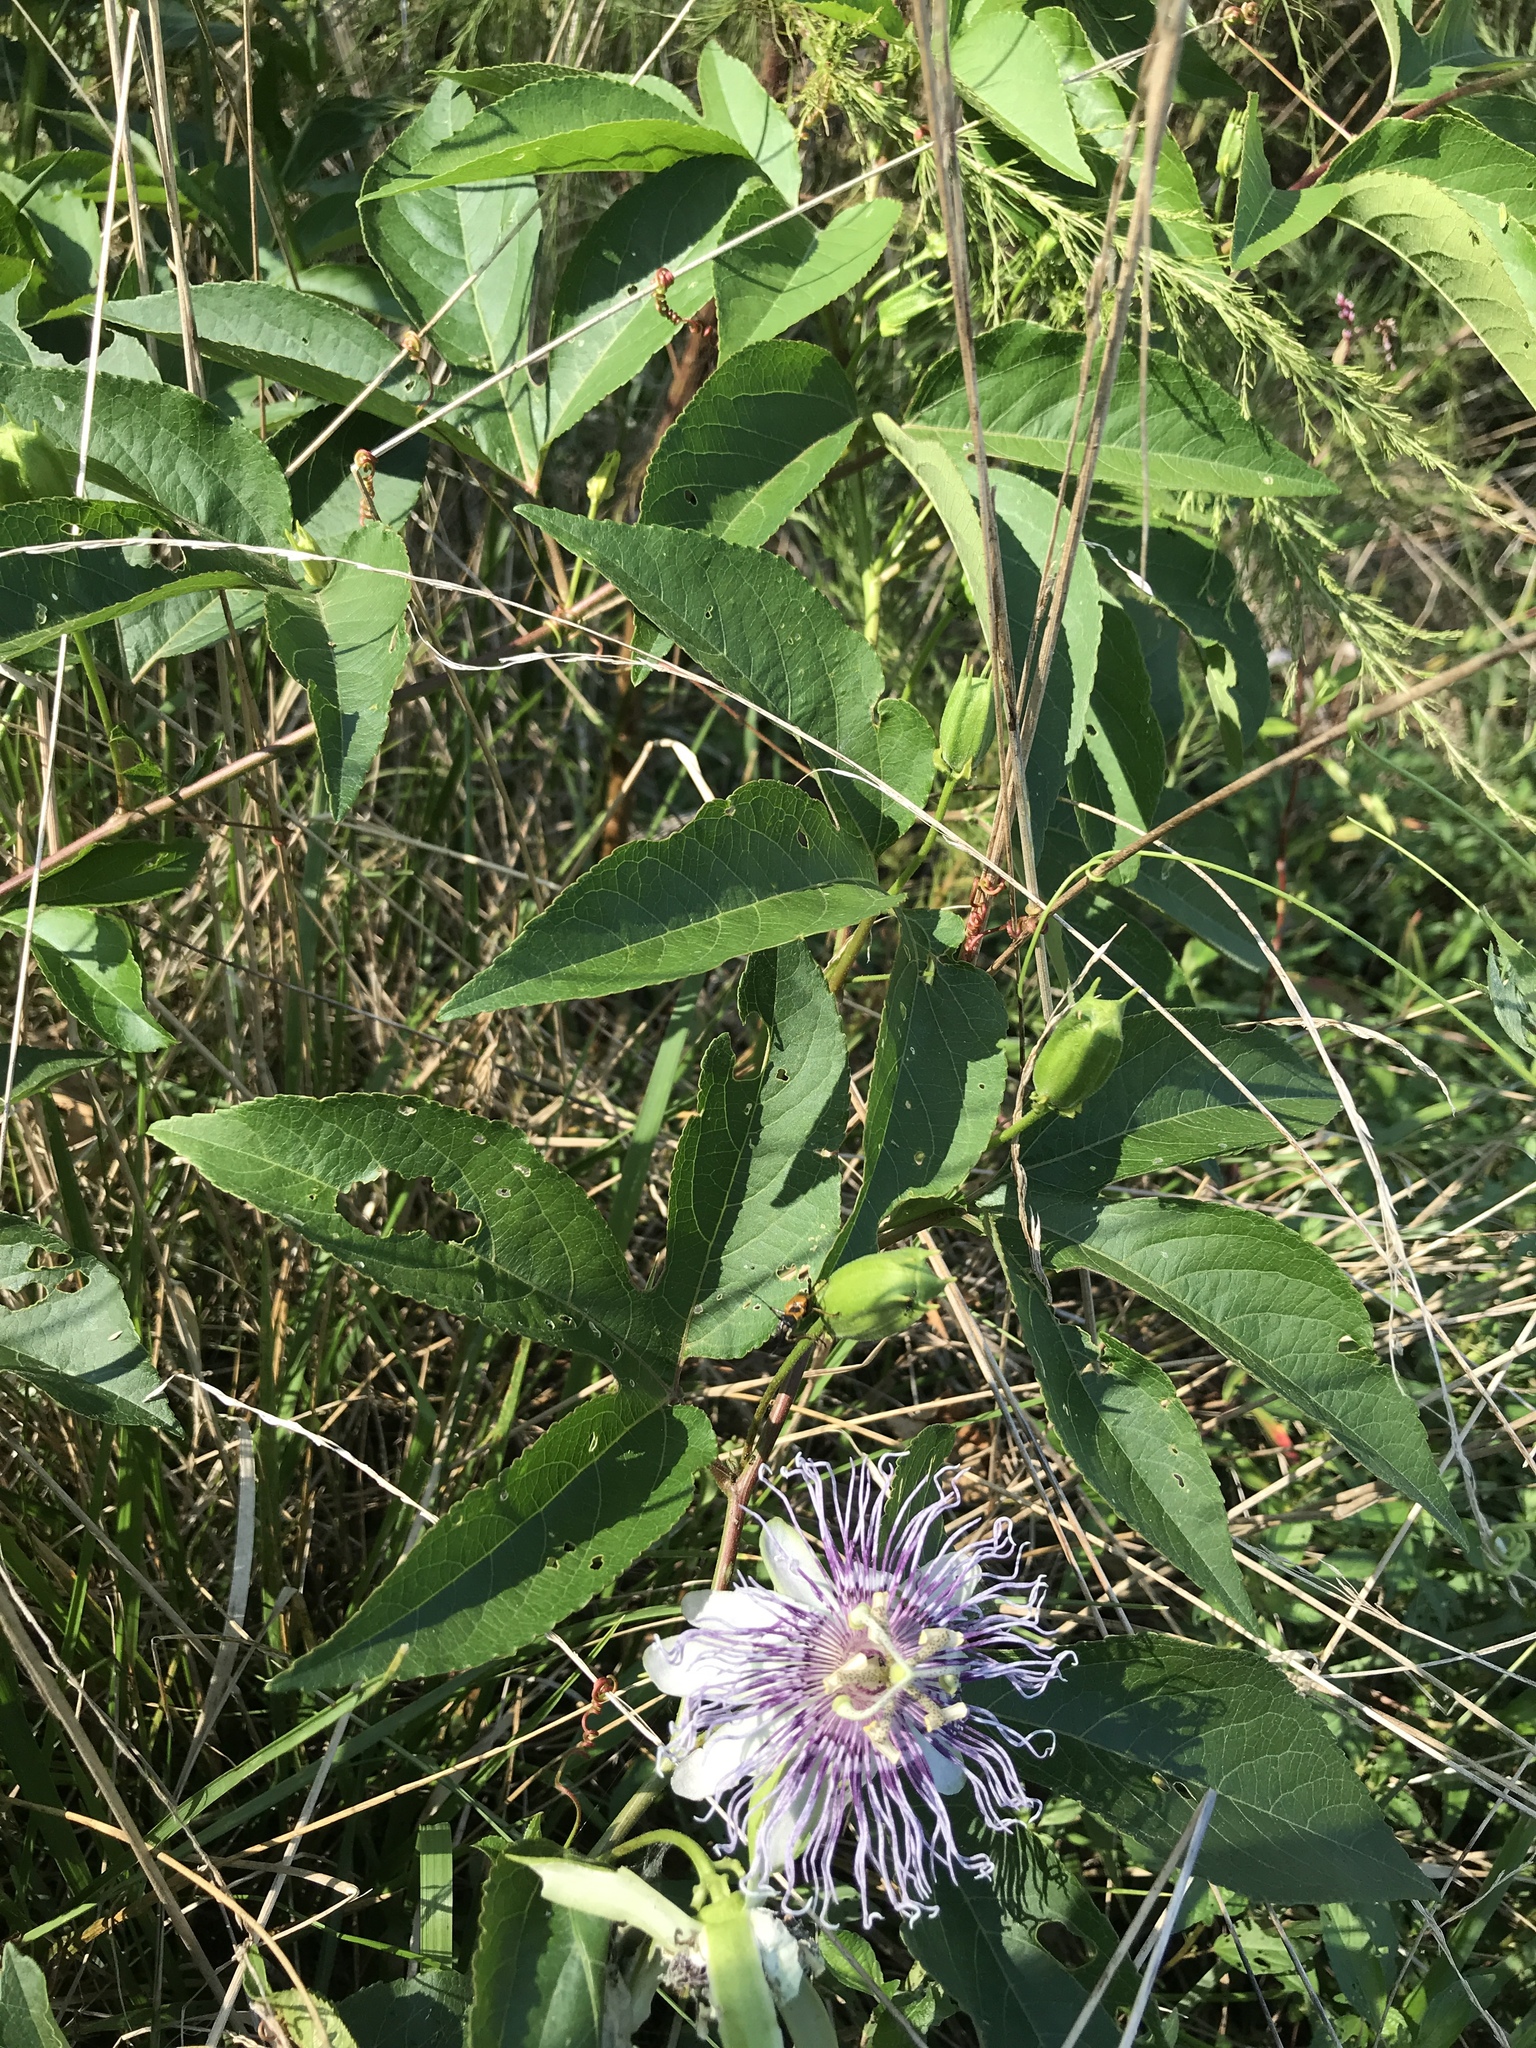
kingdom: Plantae
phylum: Tracheophyta
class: Magnoliopsida
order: Malpighiales
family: Passifloraceae
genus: Passiflora
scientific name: Passiflora incarnata
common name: Apricot-vine
